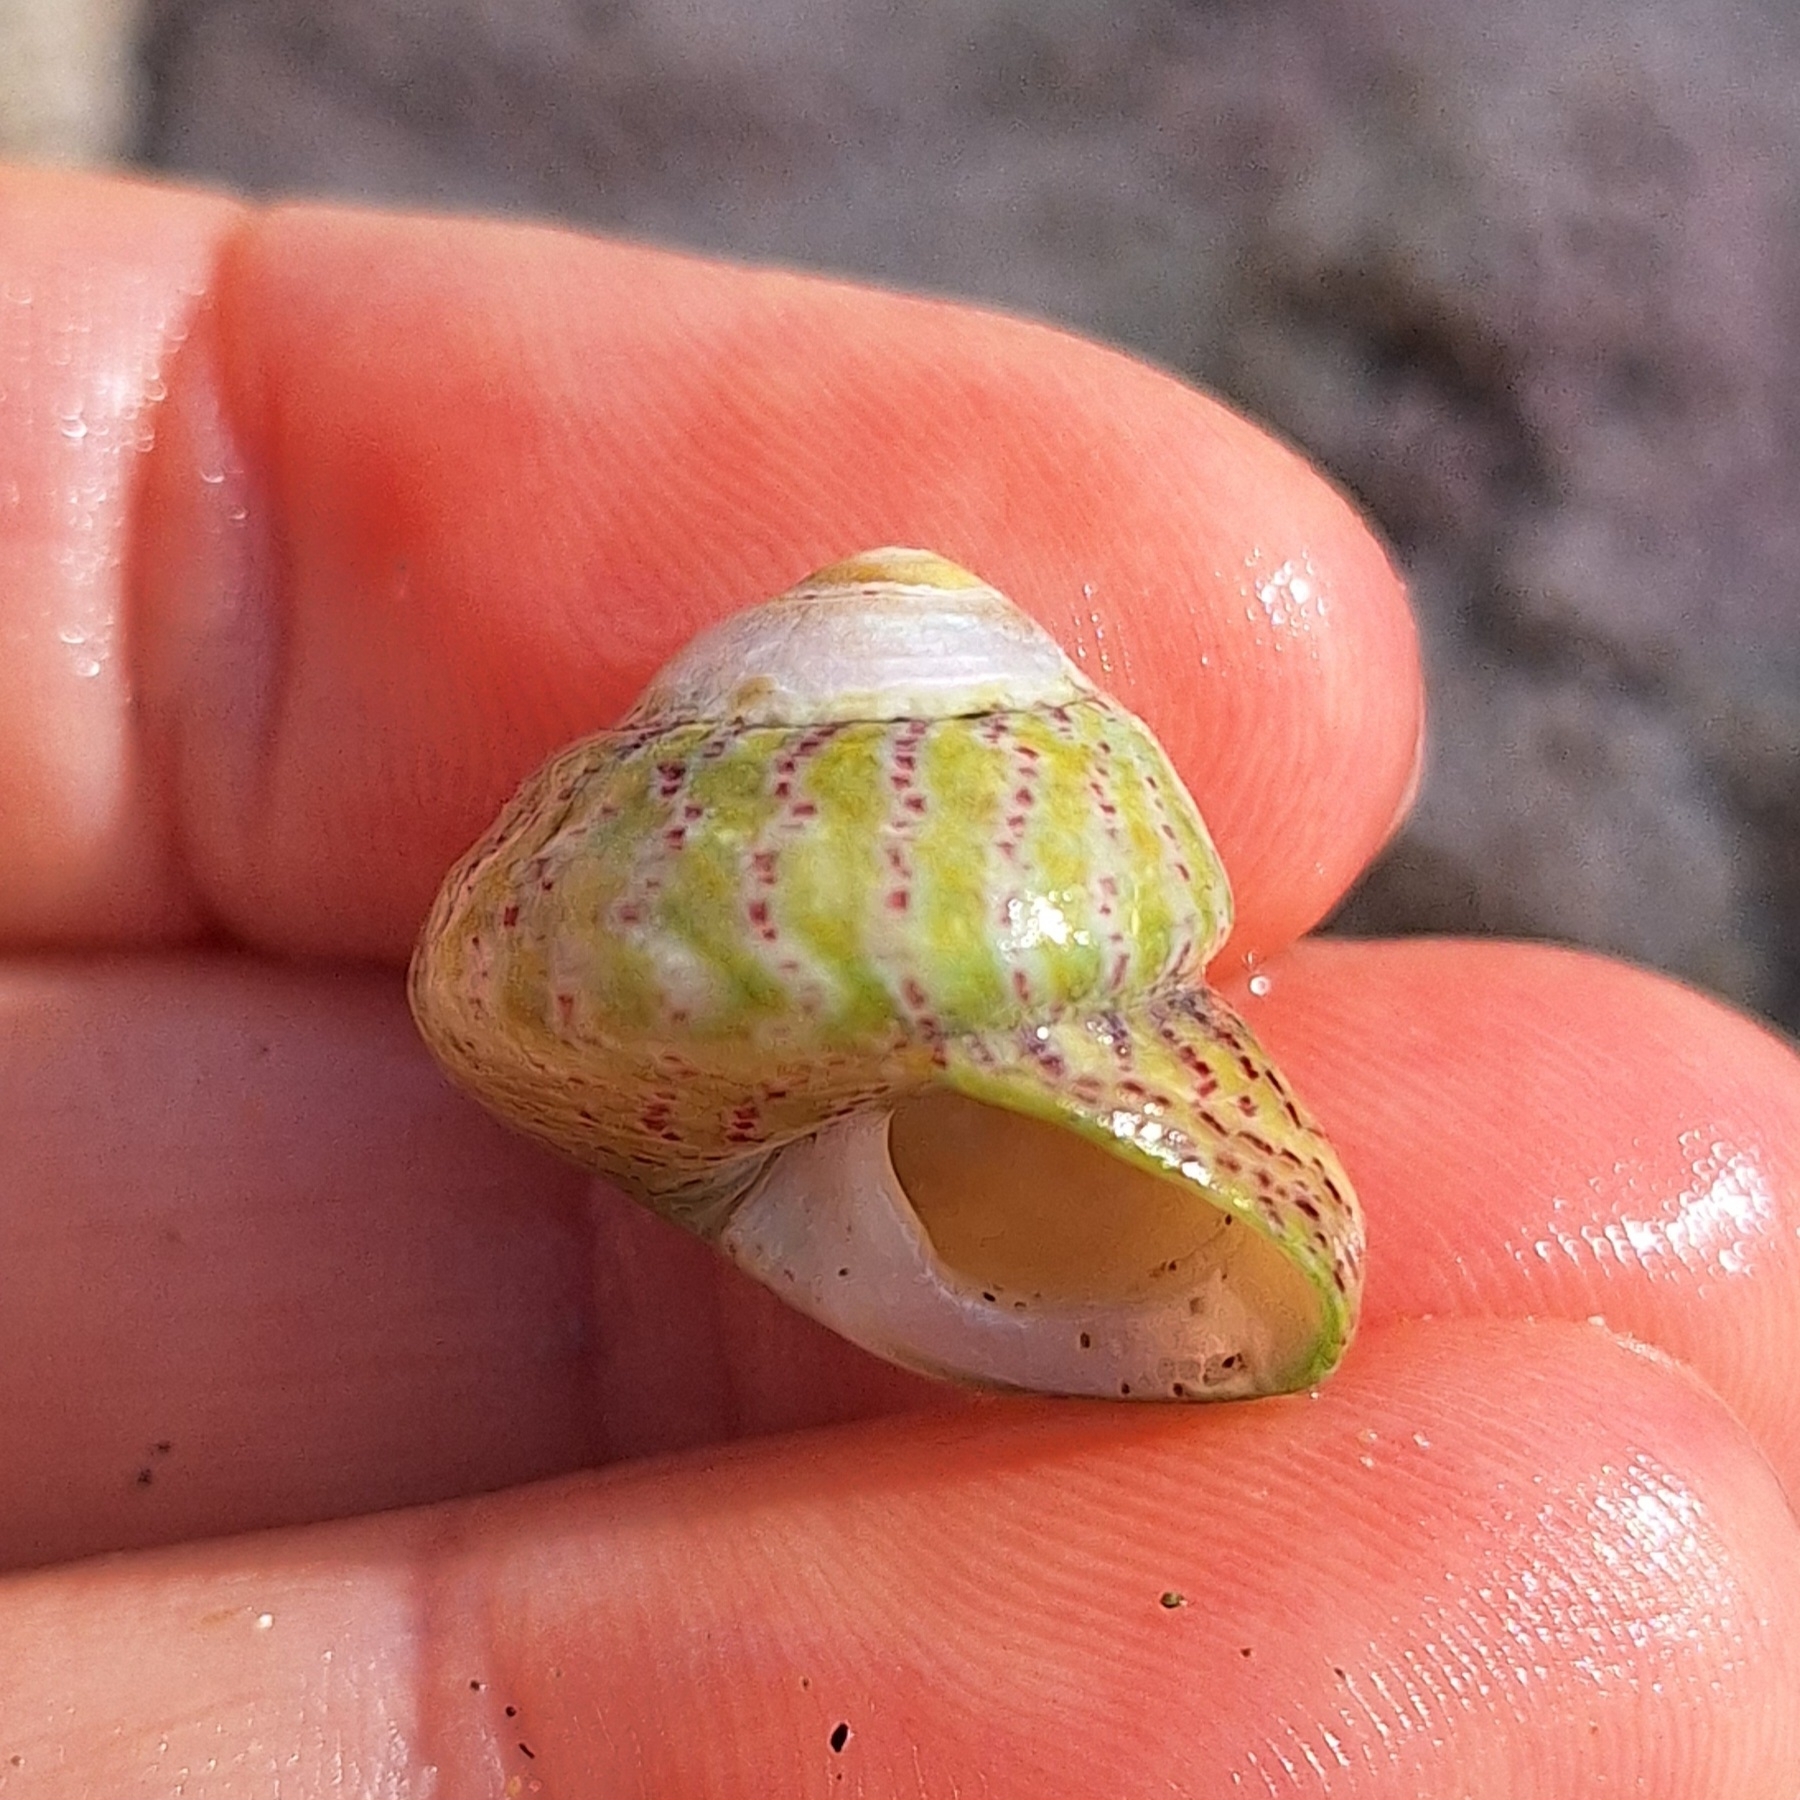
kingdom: Animalia
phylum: Mollusca
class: Gastropoda
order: Trochida
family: Trochidae
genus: Steromphala
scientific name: Steromphala divaricata
